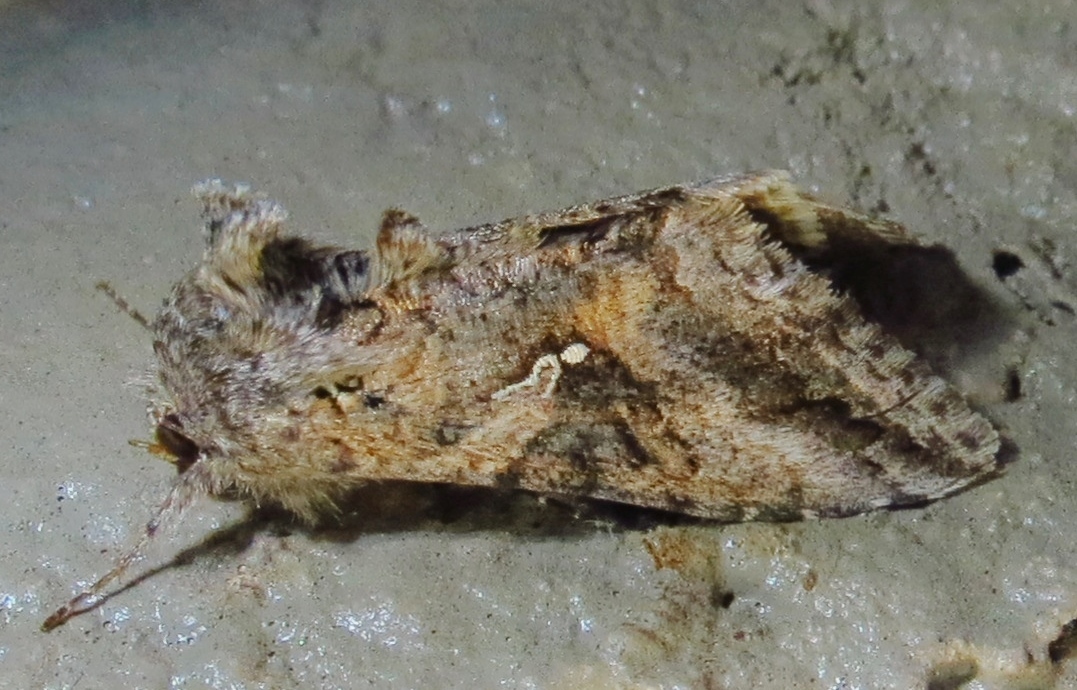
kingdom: Animalia
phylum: Arthropoda
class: Insecta
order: Lepidoptera
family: Noctuidae
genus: Rachiplusia
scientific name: Rachiplusia ou
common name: Gray looper moth
